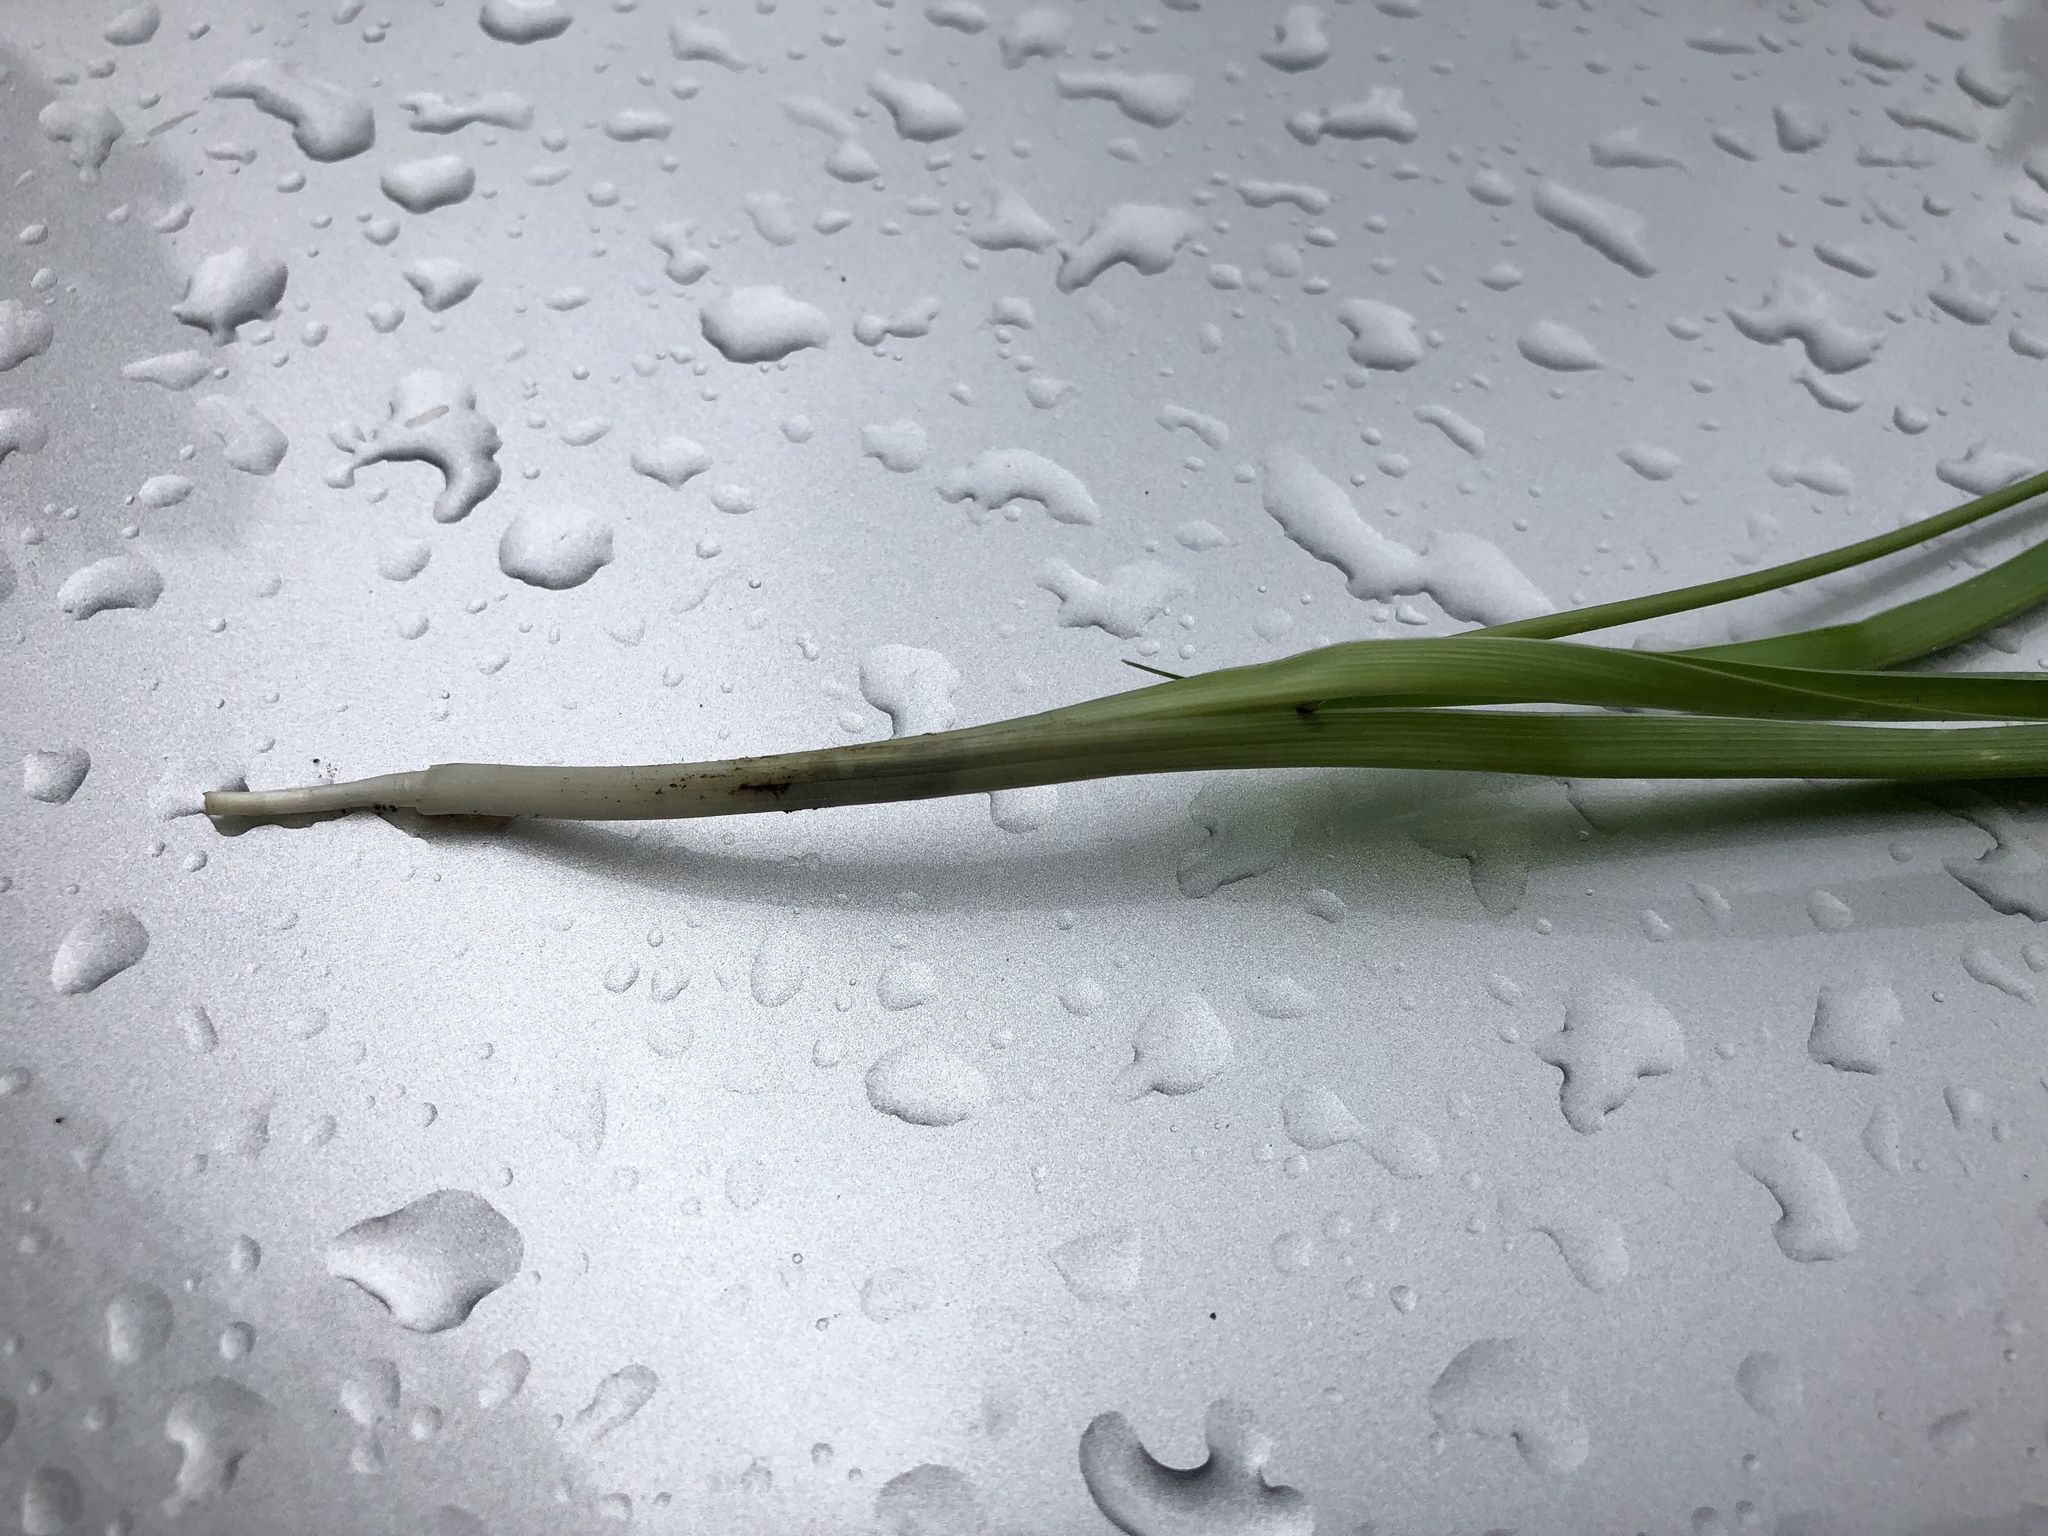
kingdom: Plantae
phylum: Tracheophyta
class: Liliopsida
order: Asparagales
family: Asparagaceae
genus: Echeandia
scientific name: Echeandia flavescens
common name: Amberlily
